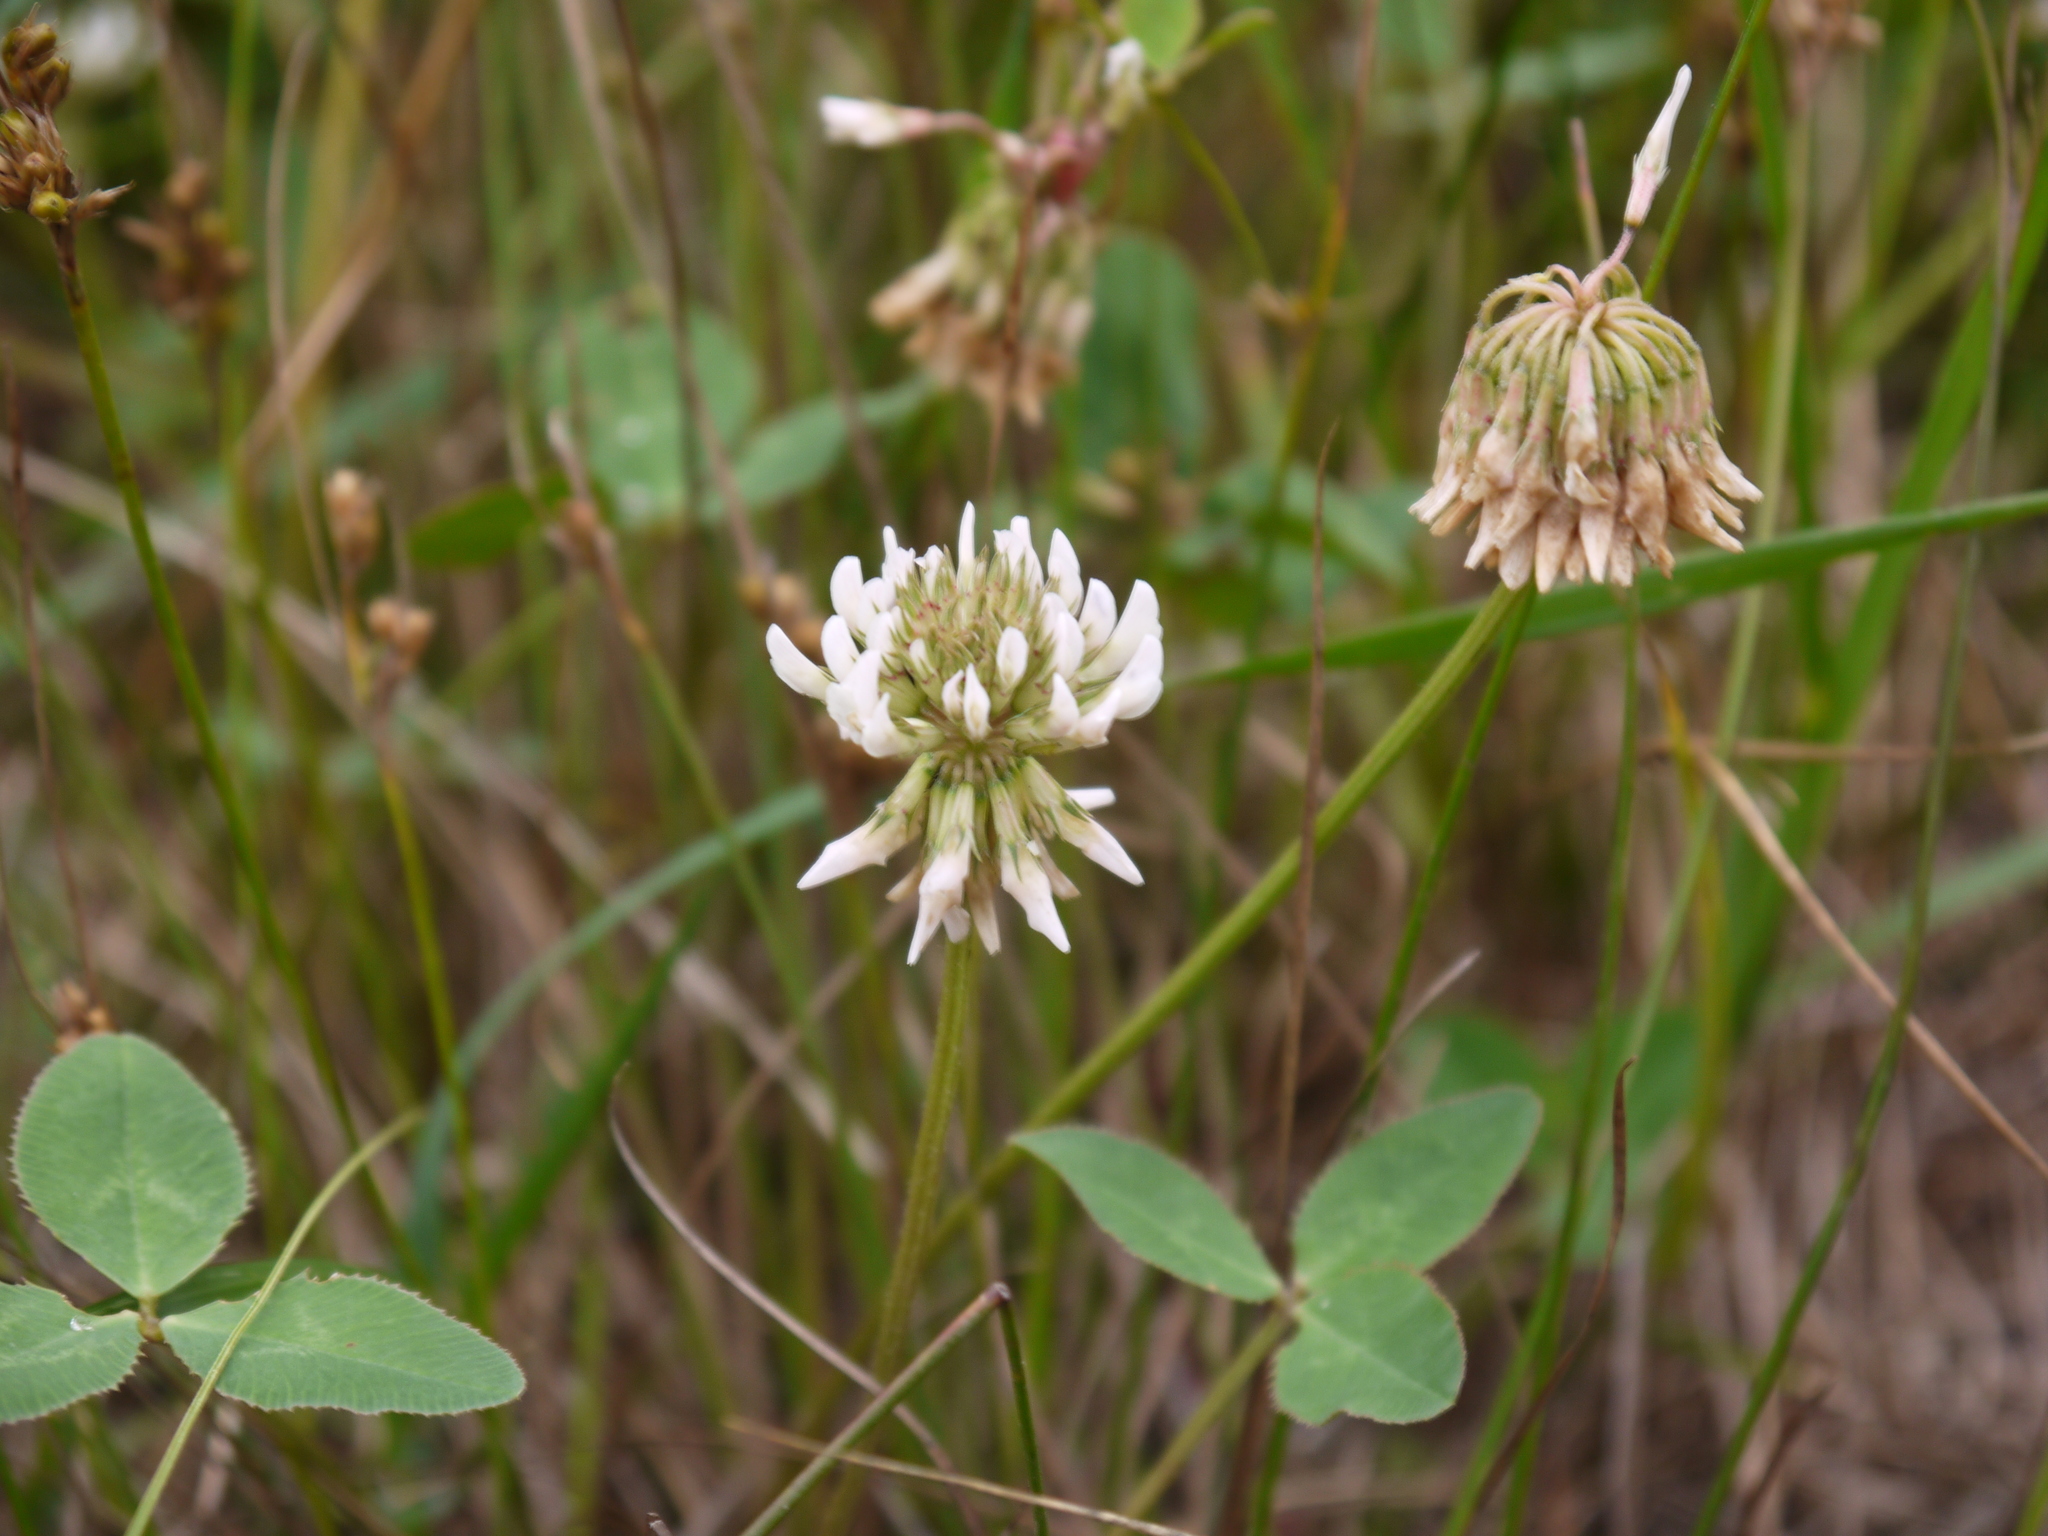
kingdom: Plantae
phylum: Tracheophyta
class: Magnoliopsida
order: Fabales
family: Fabaceae
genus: Trifolium
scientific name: Trifolium repens
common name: White clover
